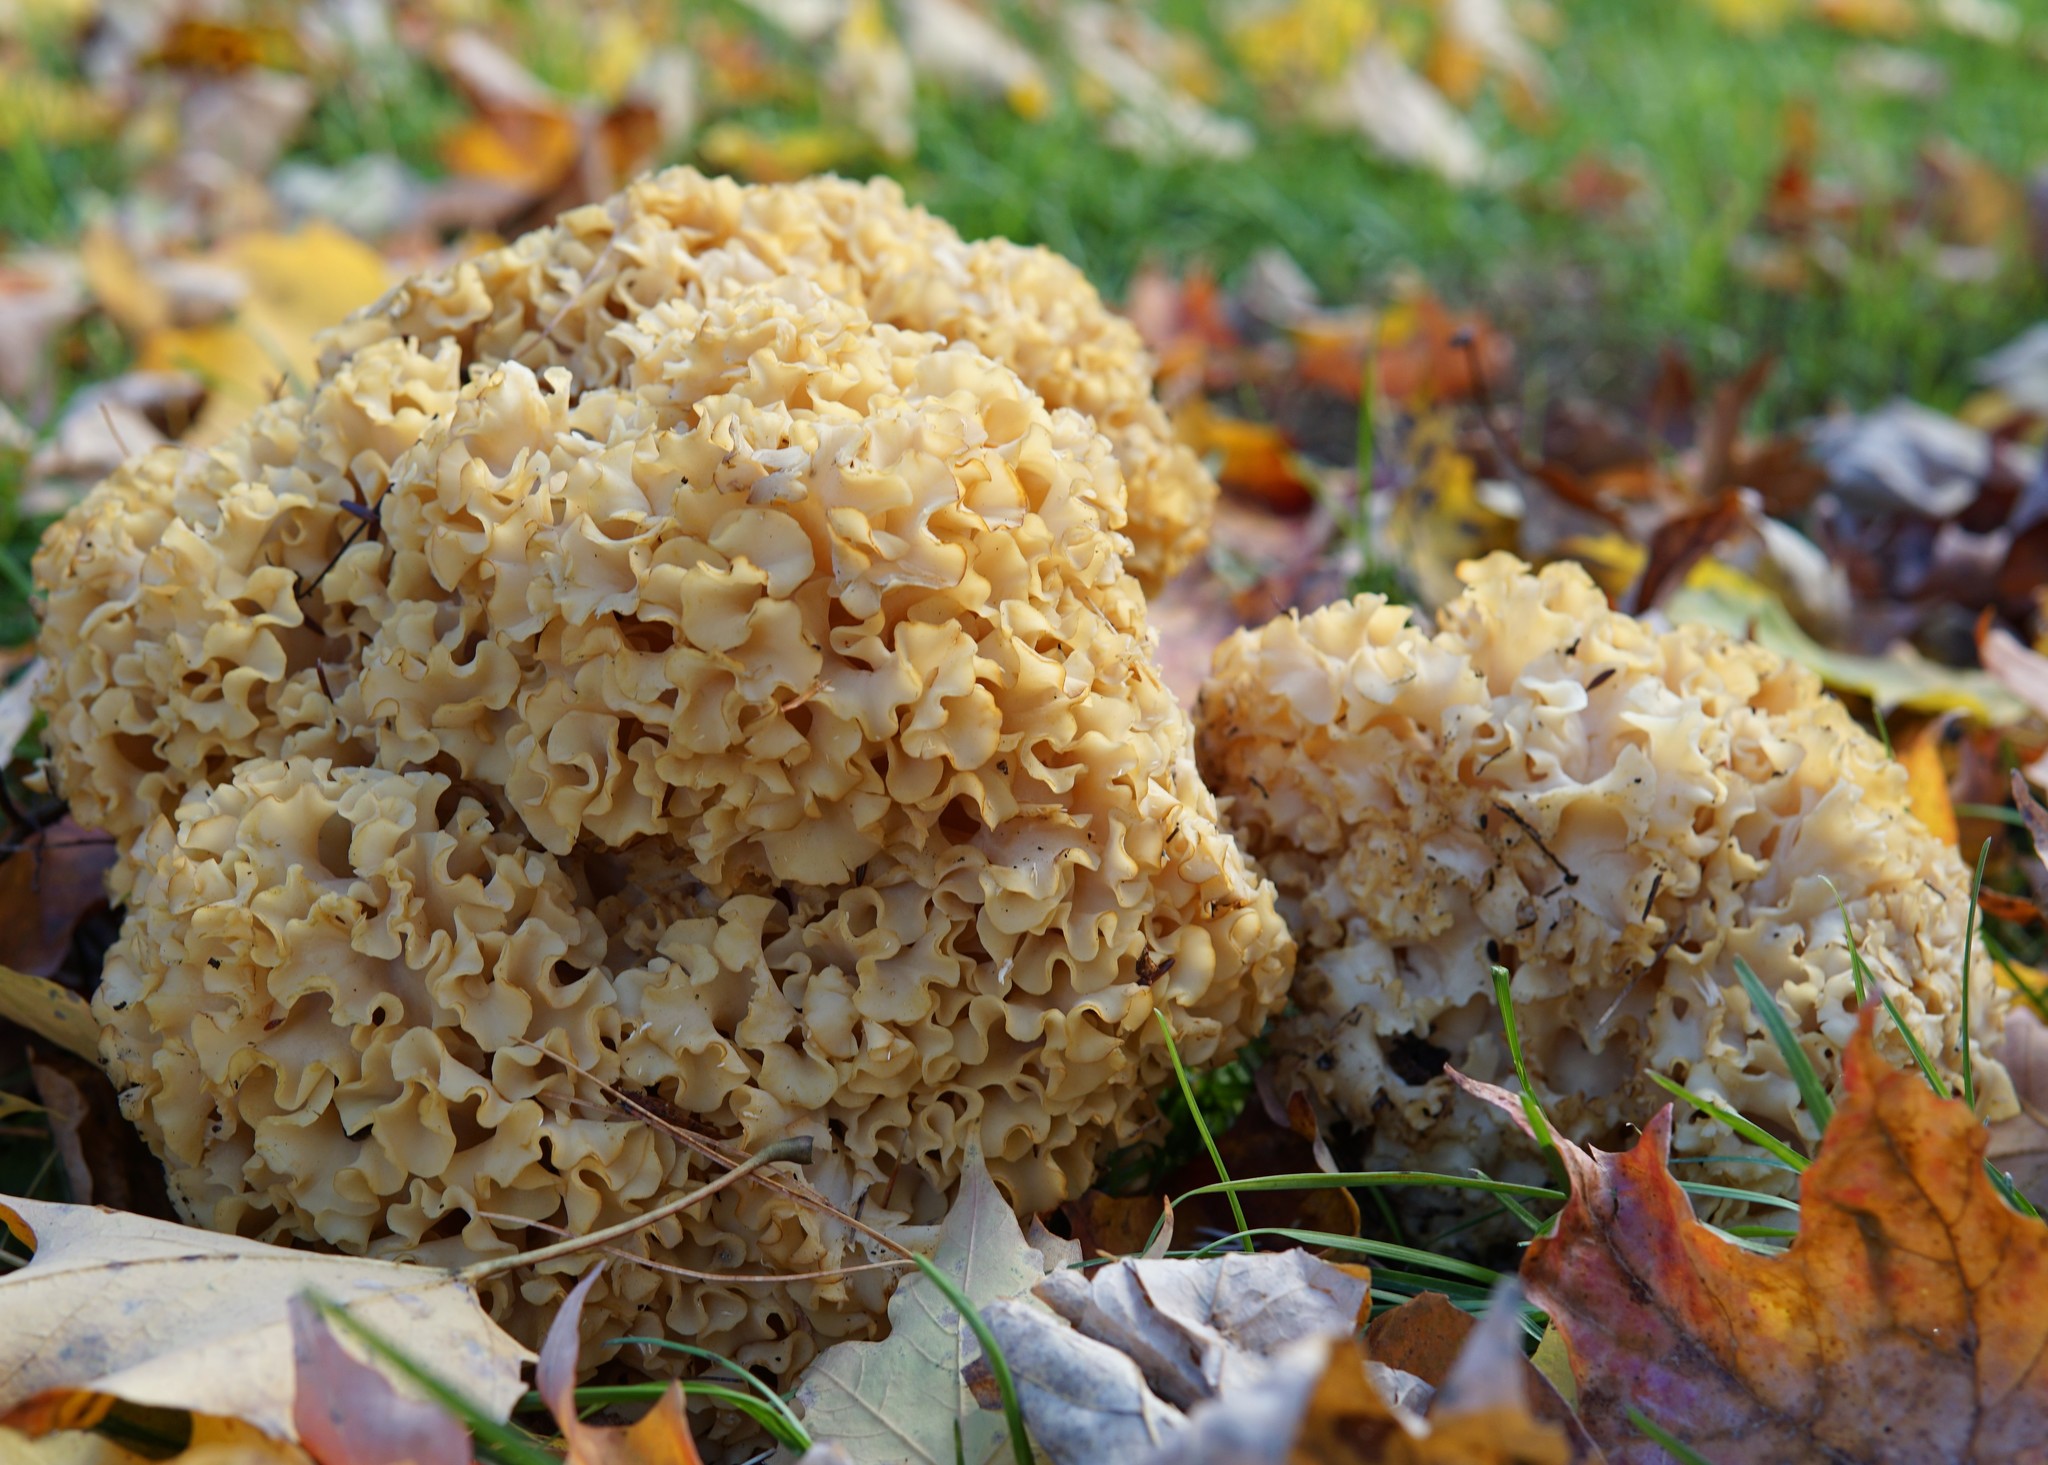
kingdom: Fungi
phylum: Basidiomycota
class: Agaricomycetes
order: Polyporales
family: Sparassidaceae
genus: Sparassis
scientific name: Sparassis americana
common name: American cauliflower mushroom
